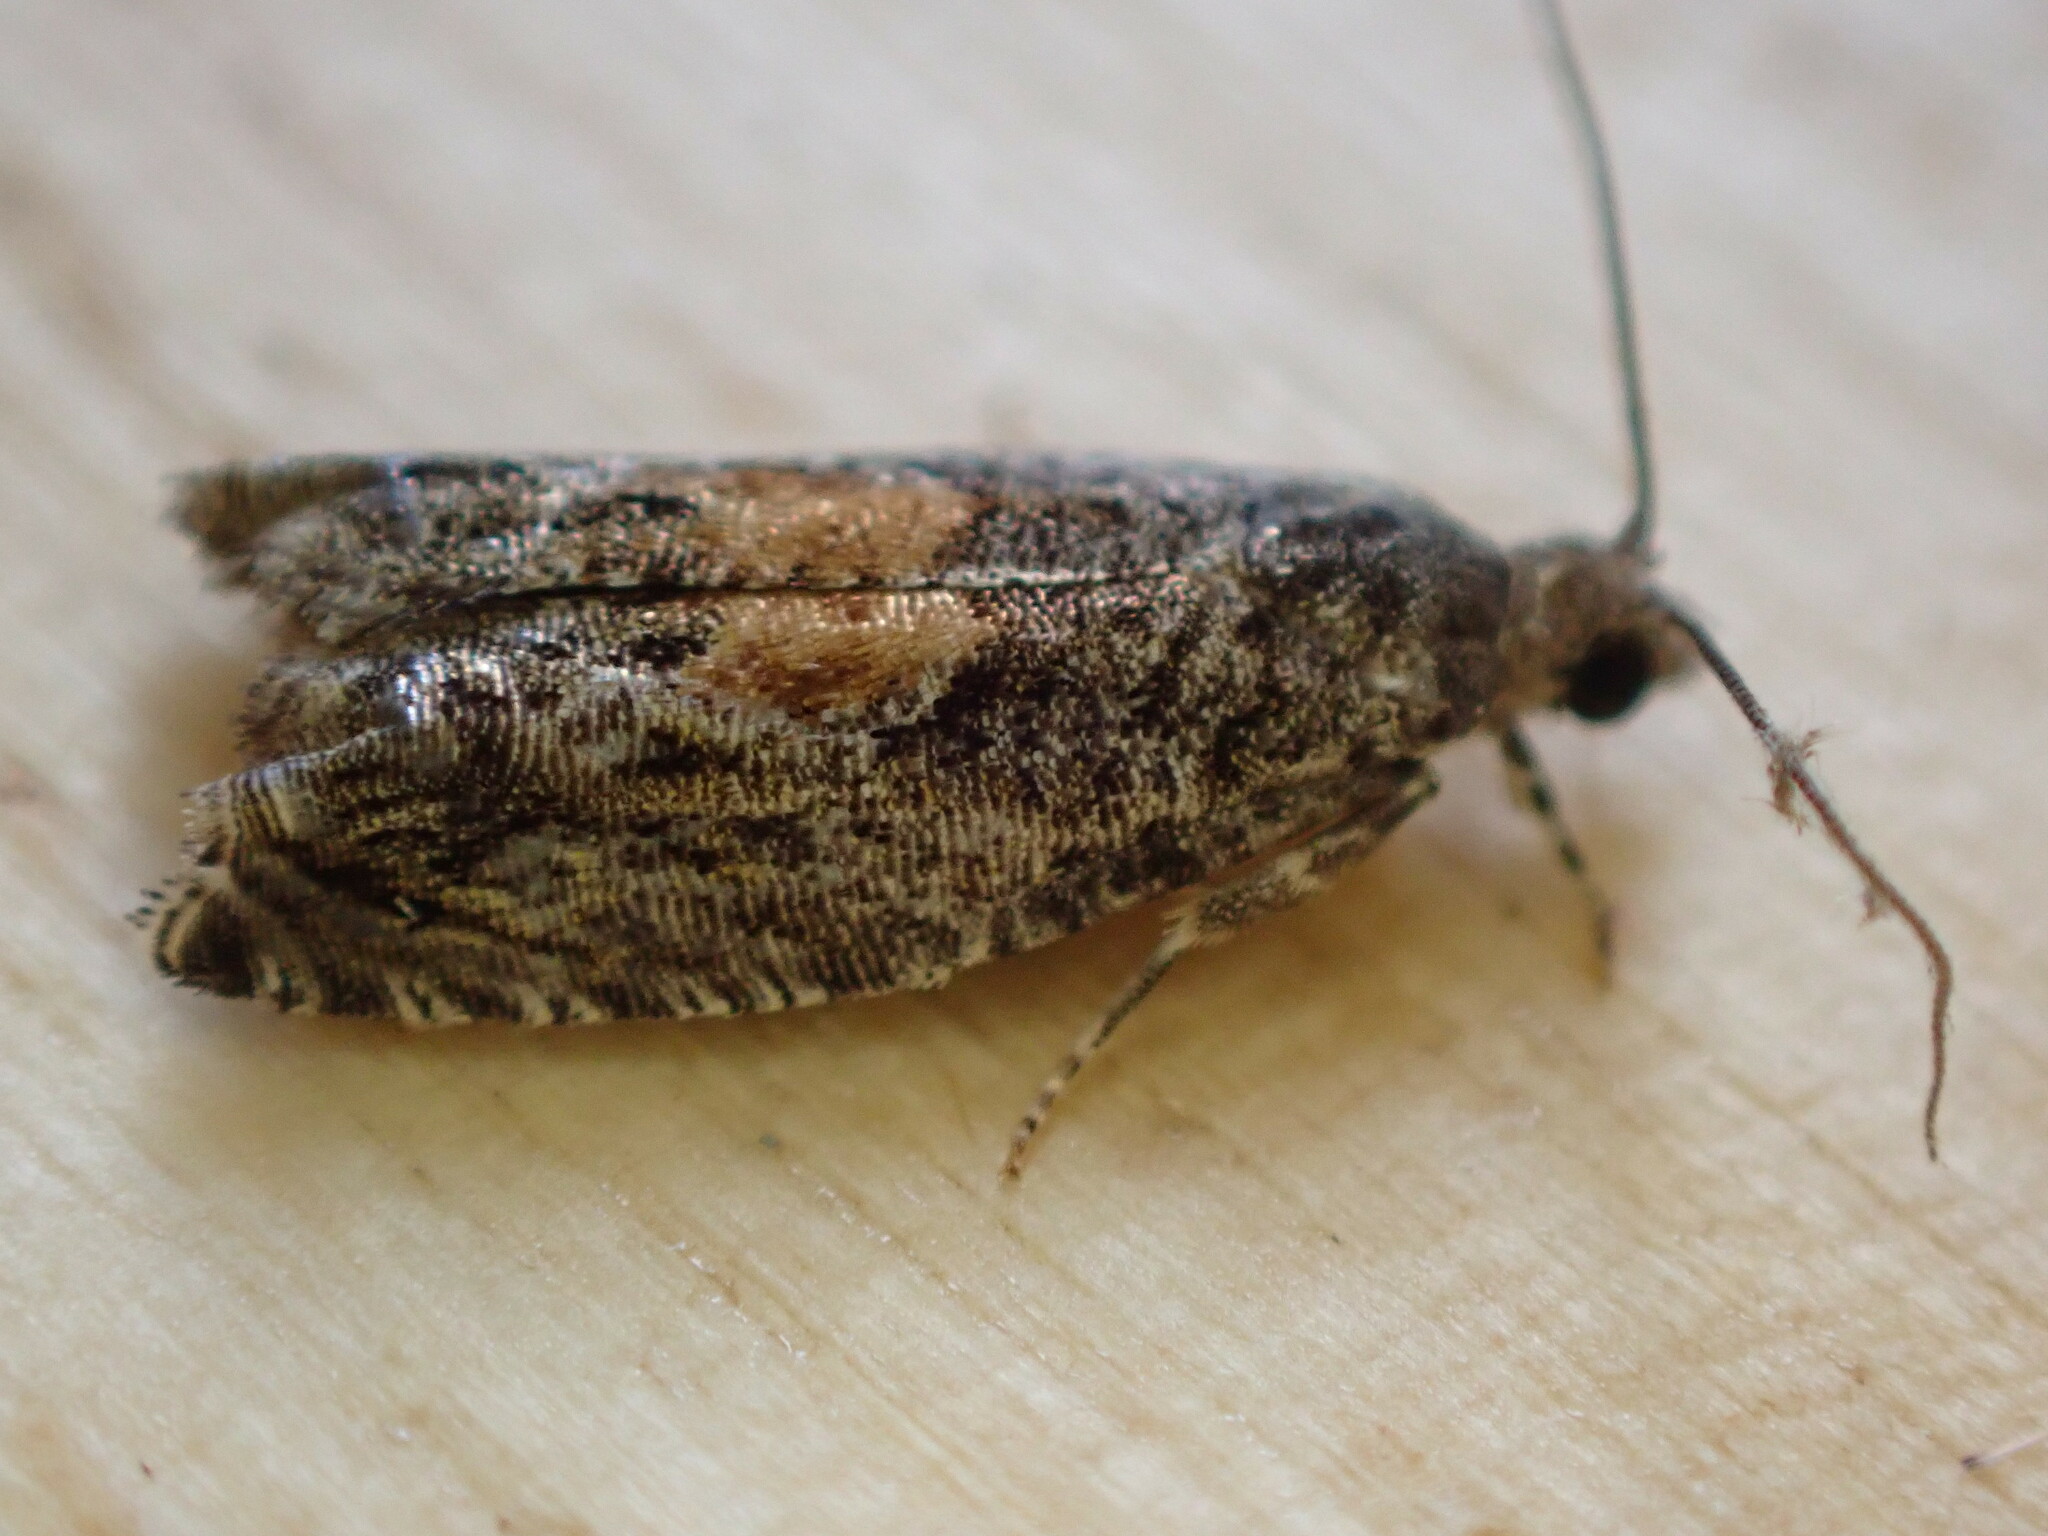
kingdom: Animalia
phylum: Arthropoda
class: Insecta
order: Lepidoptera
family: Tortricidae
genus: Epinotia
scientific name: Epinotia nisella
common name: Grey poplar bell
